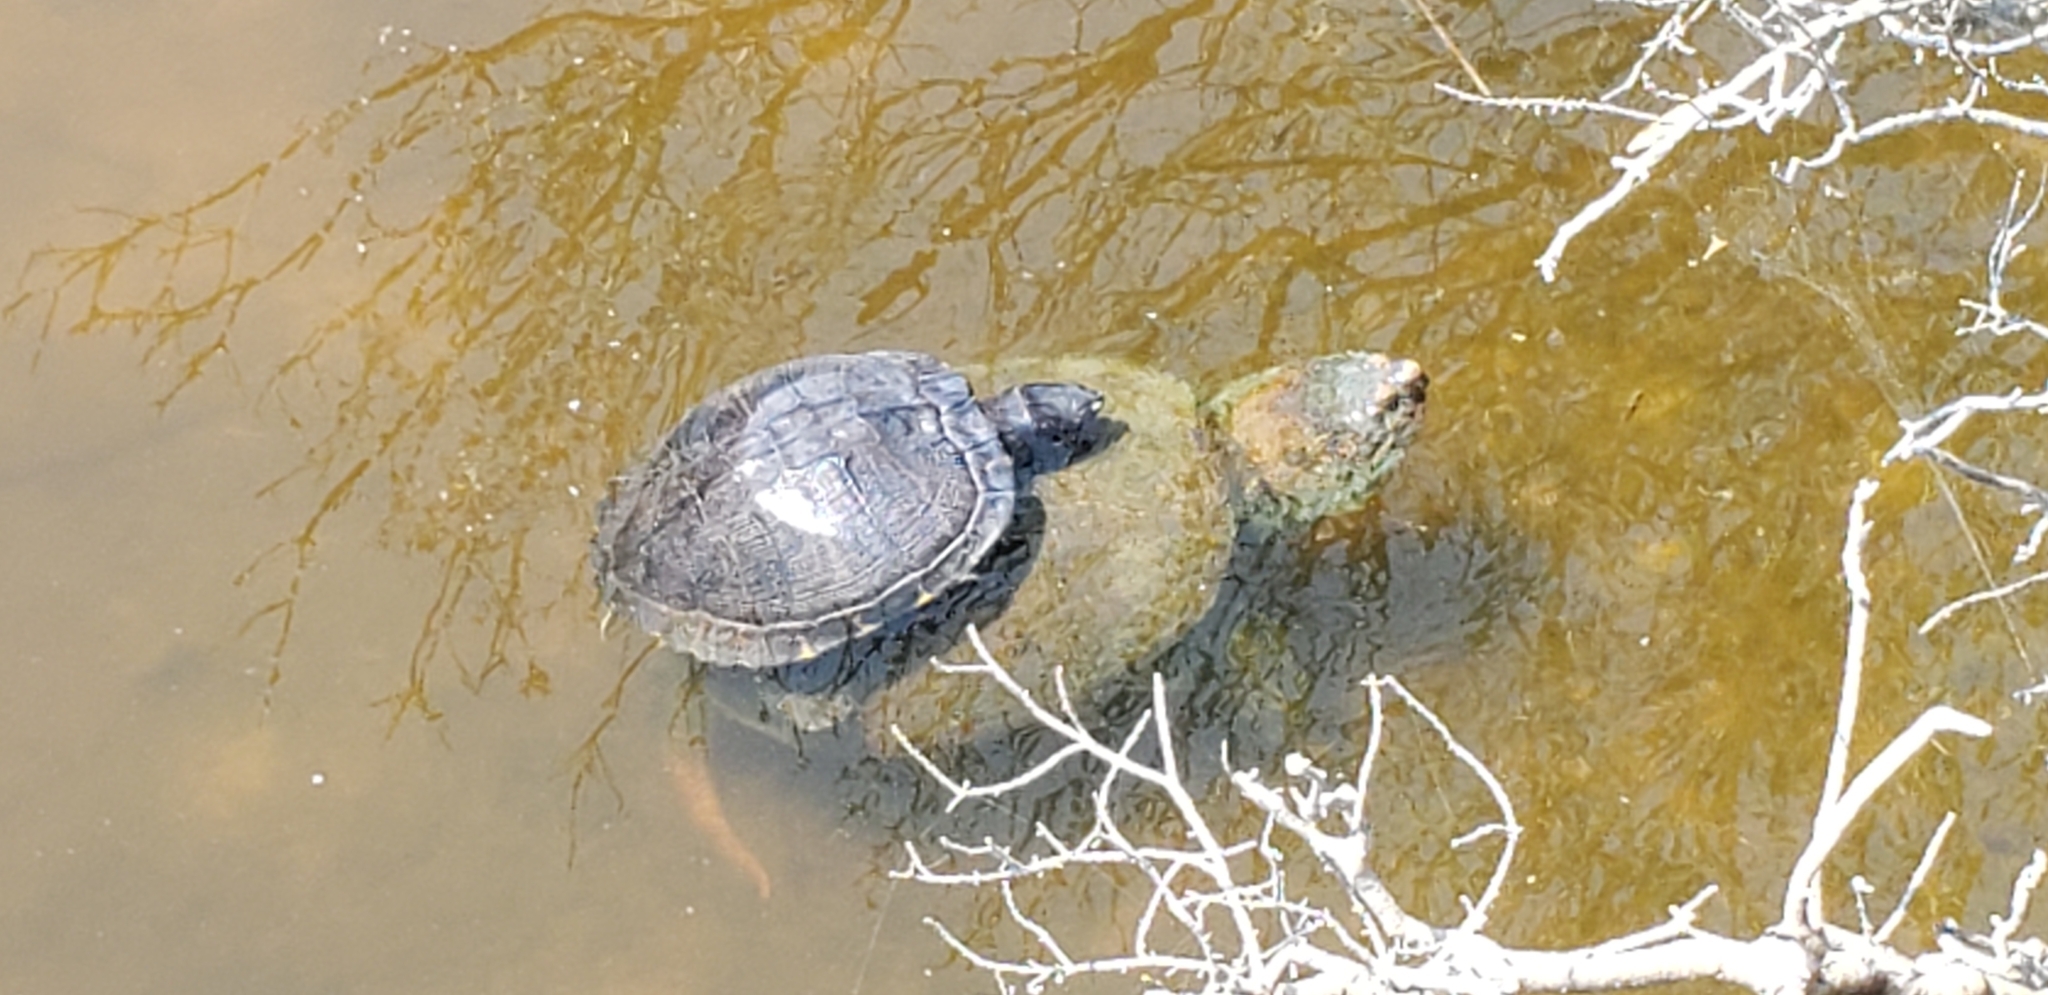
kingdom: Animalia
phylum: Chordata
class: Testudines
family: Emydidae
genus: Trachemys
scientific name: Trachemys scripta
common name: Slider
